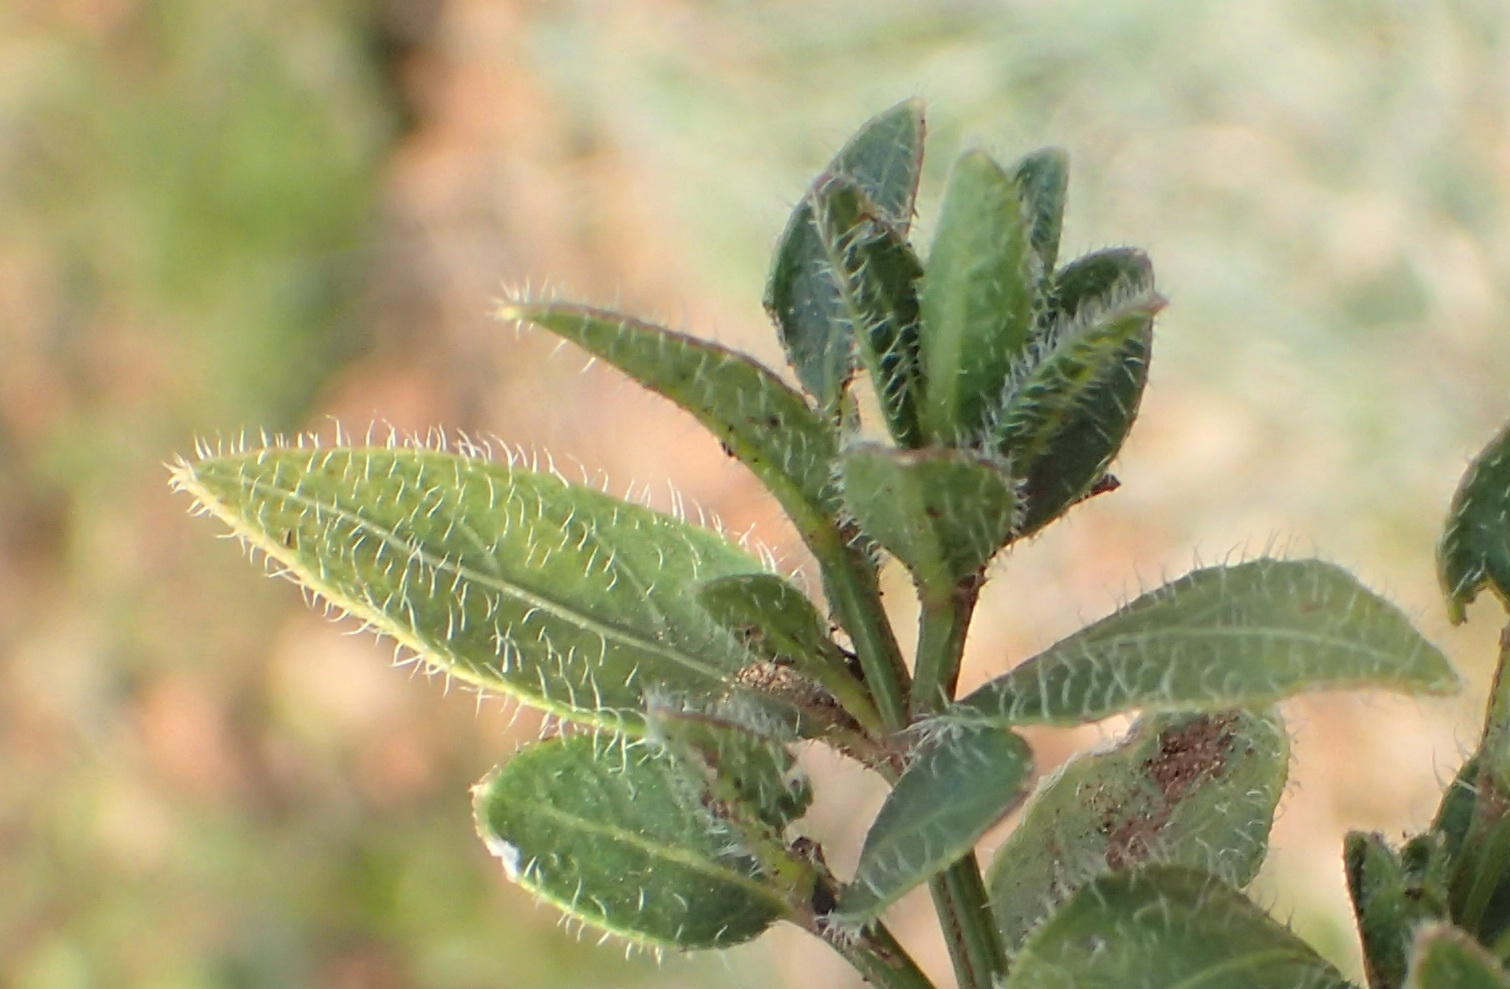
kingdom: Plantae
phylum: Tracheophyta
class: Magnoliopsida
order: Lamiales
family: Acanthaceae
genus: Ruellia
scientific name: Ruellia cordata
